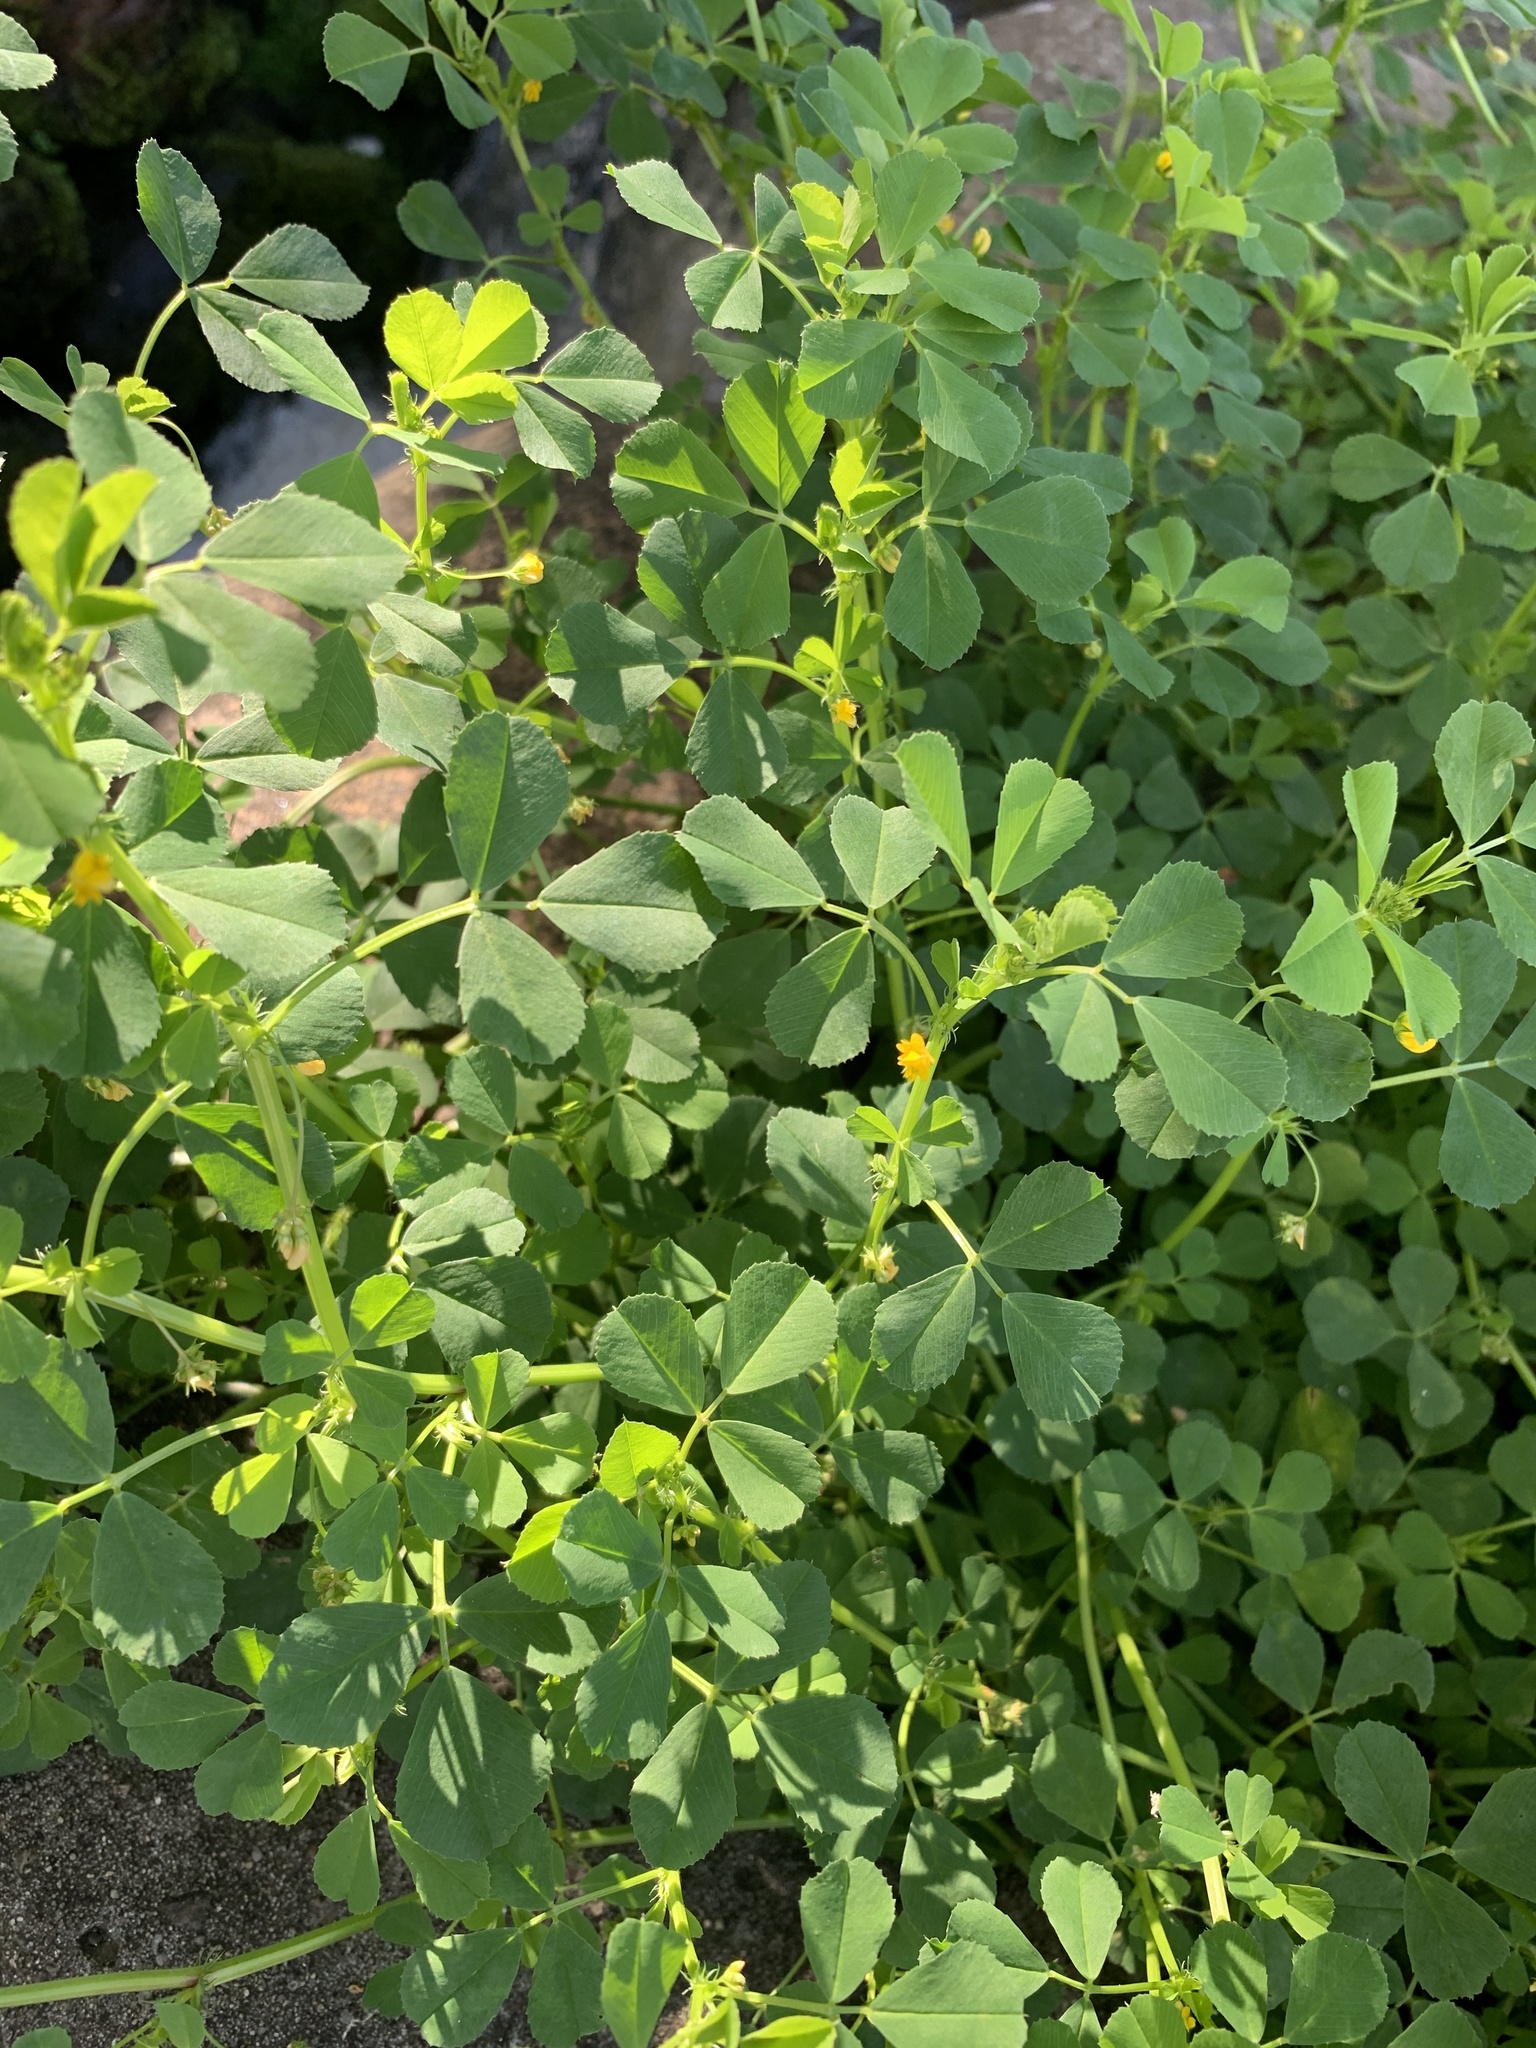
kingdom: Plantae
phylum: Tracheophyta
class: Magnoliopsida
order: Fabales
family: Fabaceae
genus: Medicago
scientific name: Medicago polymorpha
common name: Burclover
